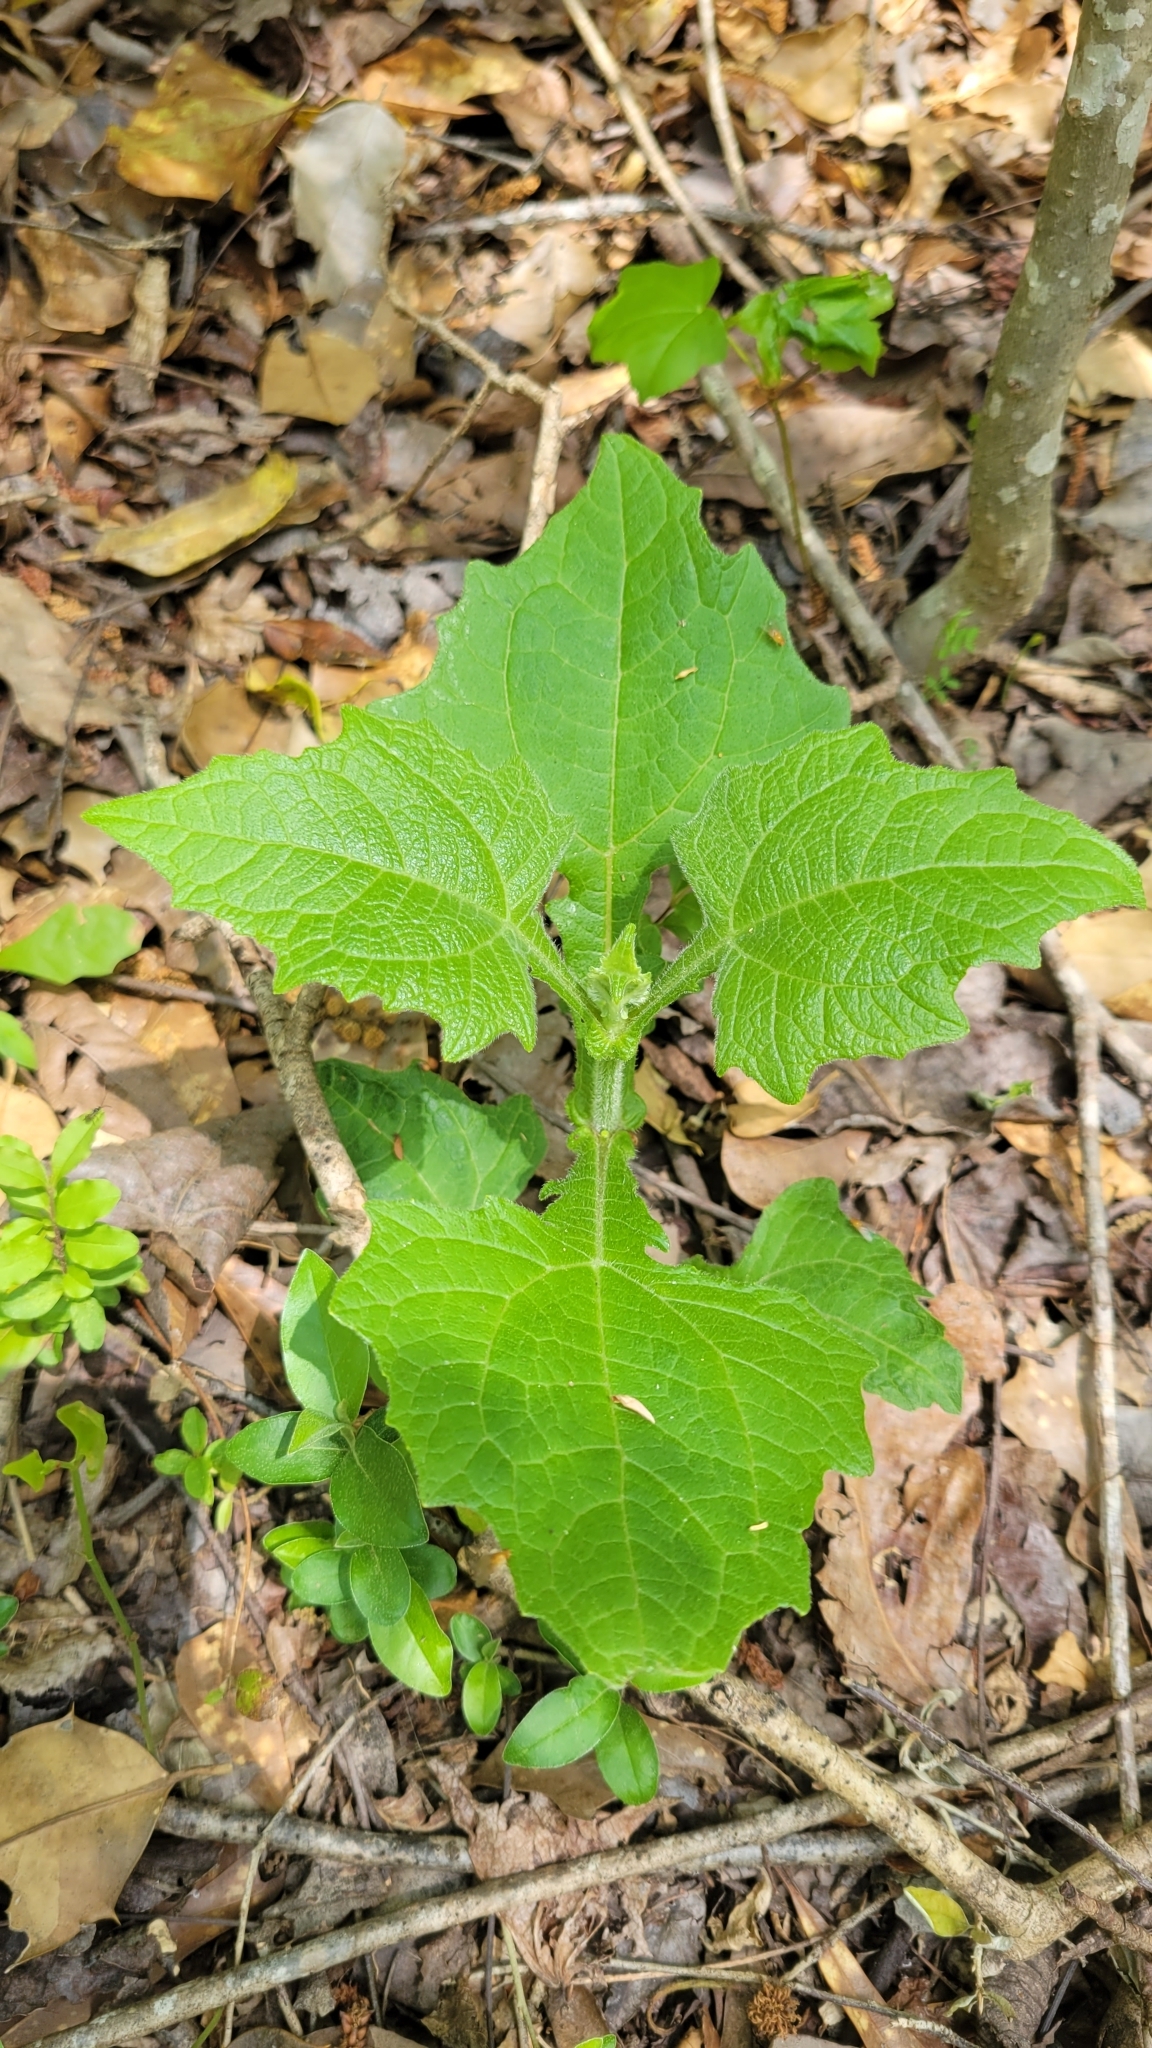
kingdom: Plantae
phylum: Tracheophyta
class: Magnoliopsida
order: Asterales
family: Asteraceae
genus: Smallanthus
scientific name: Smallanthus uvedalia
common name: Bear's-foot
